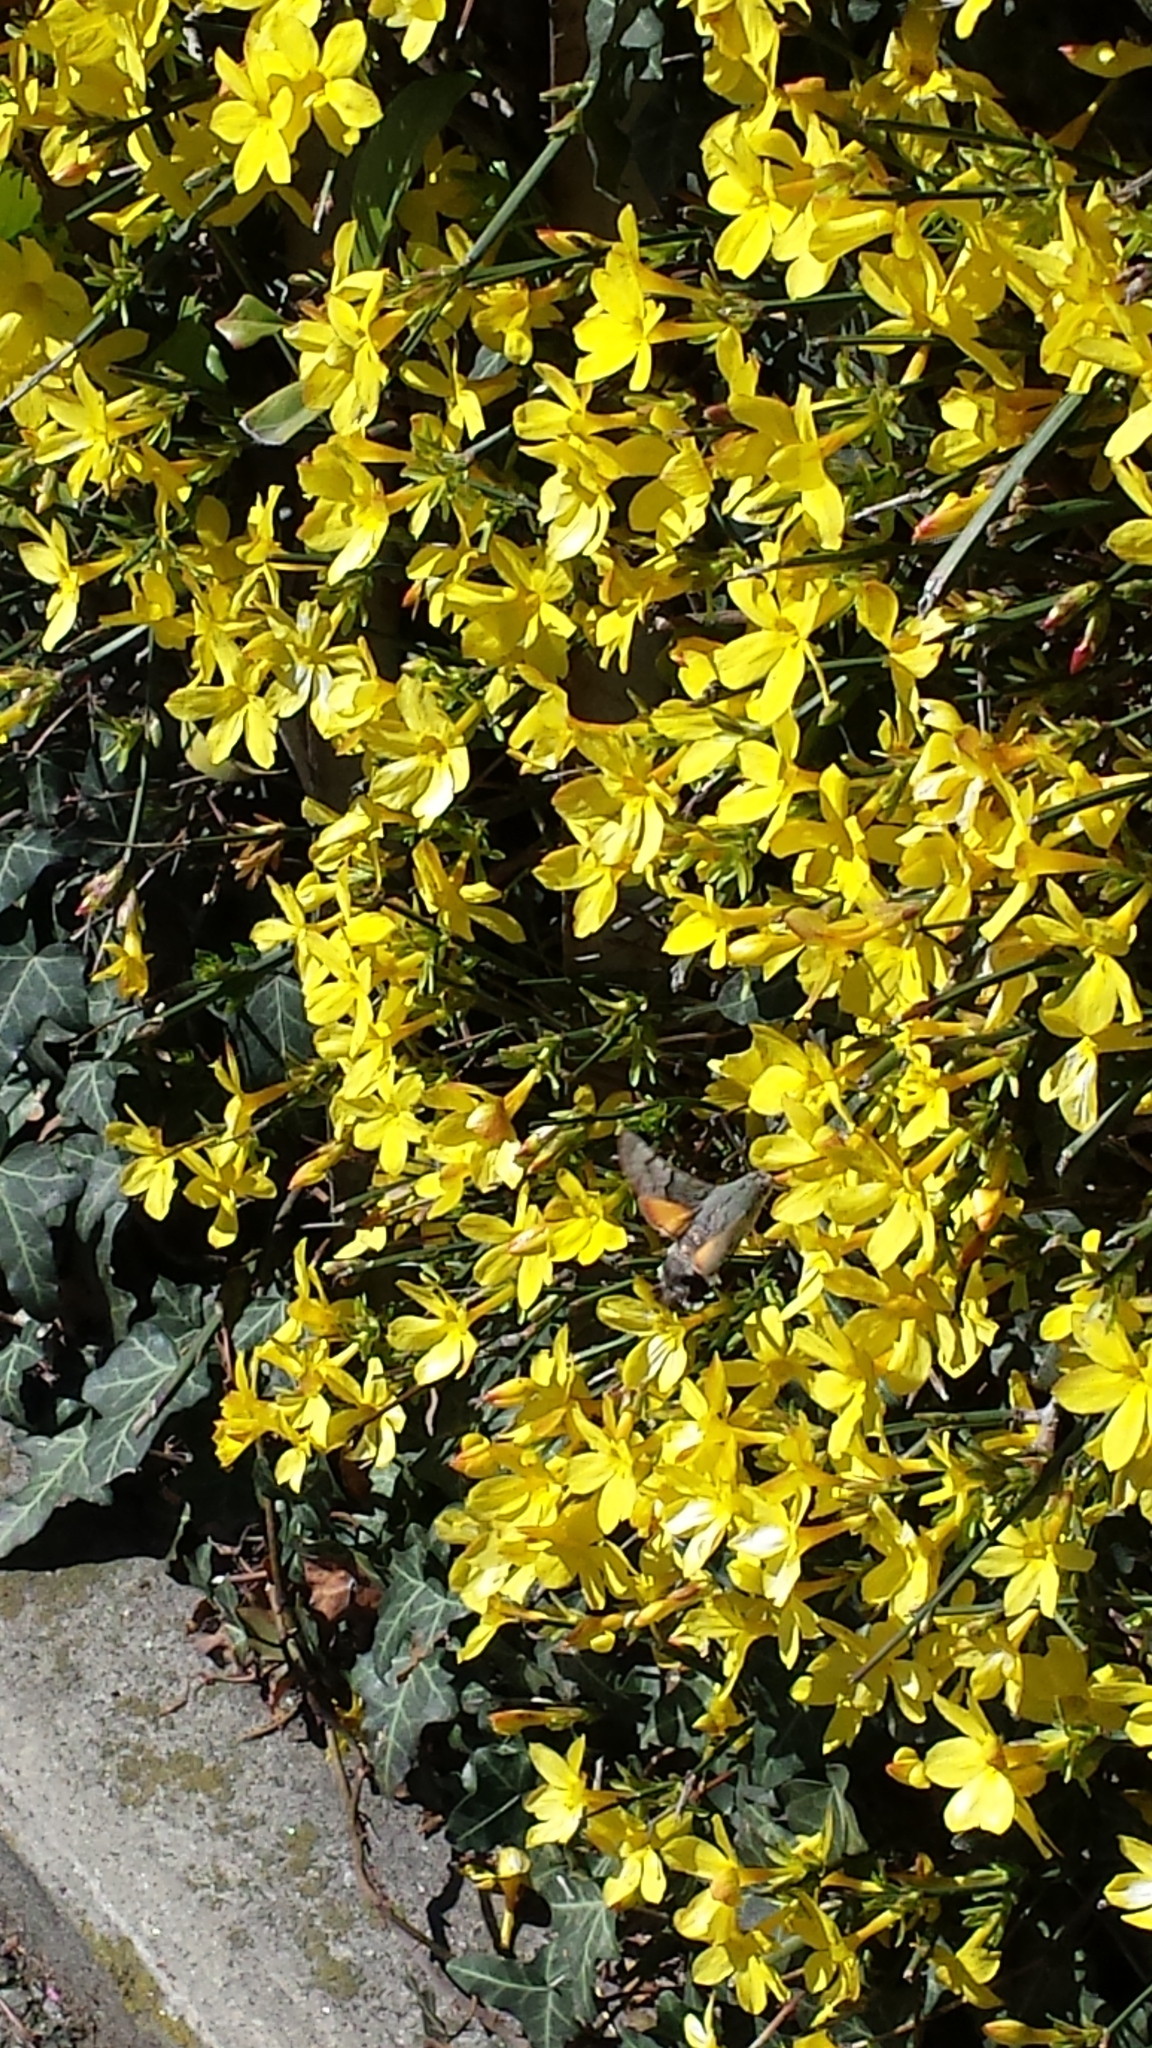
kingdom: Animalia
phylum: Arthropoda
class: Insecta
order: Lepidoptera
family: Sphingidae
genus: Macroglossum
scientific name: Macroglossum stellatarum
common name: Humming-bird hawk-moth
